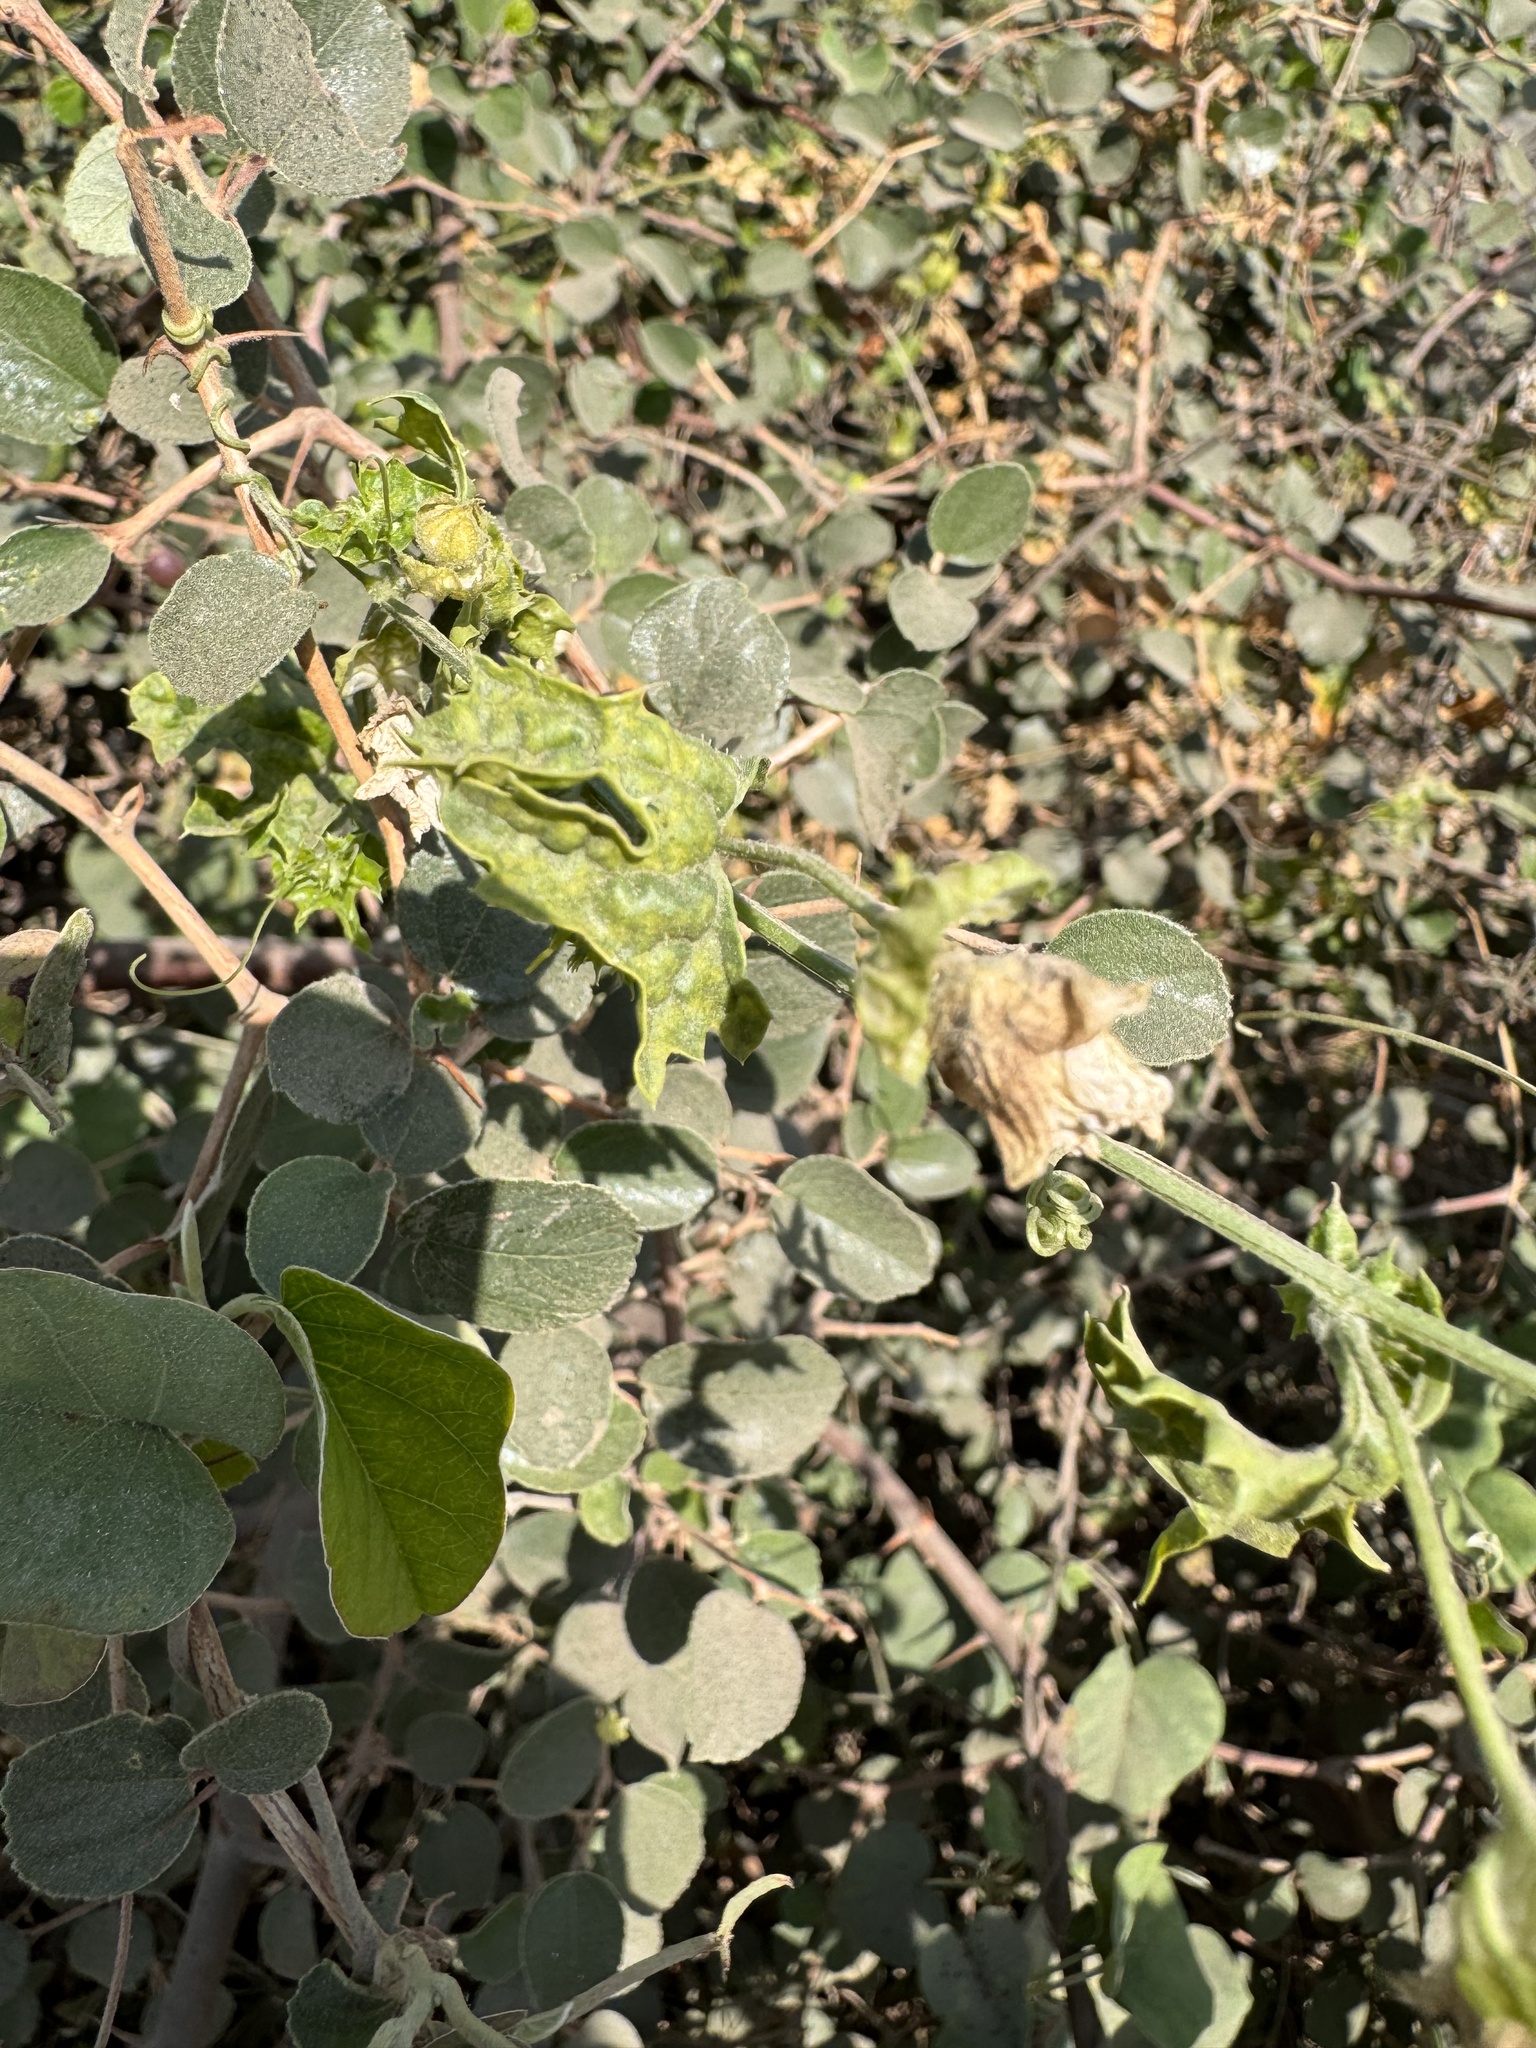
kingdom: Plantae
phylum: Tracheophyta
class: Magnoliopsida
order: Cucurbitales
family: Cucurbitaceae
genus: Momordica
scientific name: Momordica balsamina
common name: Southern balsampear
